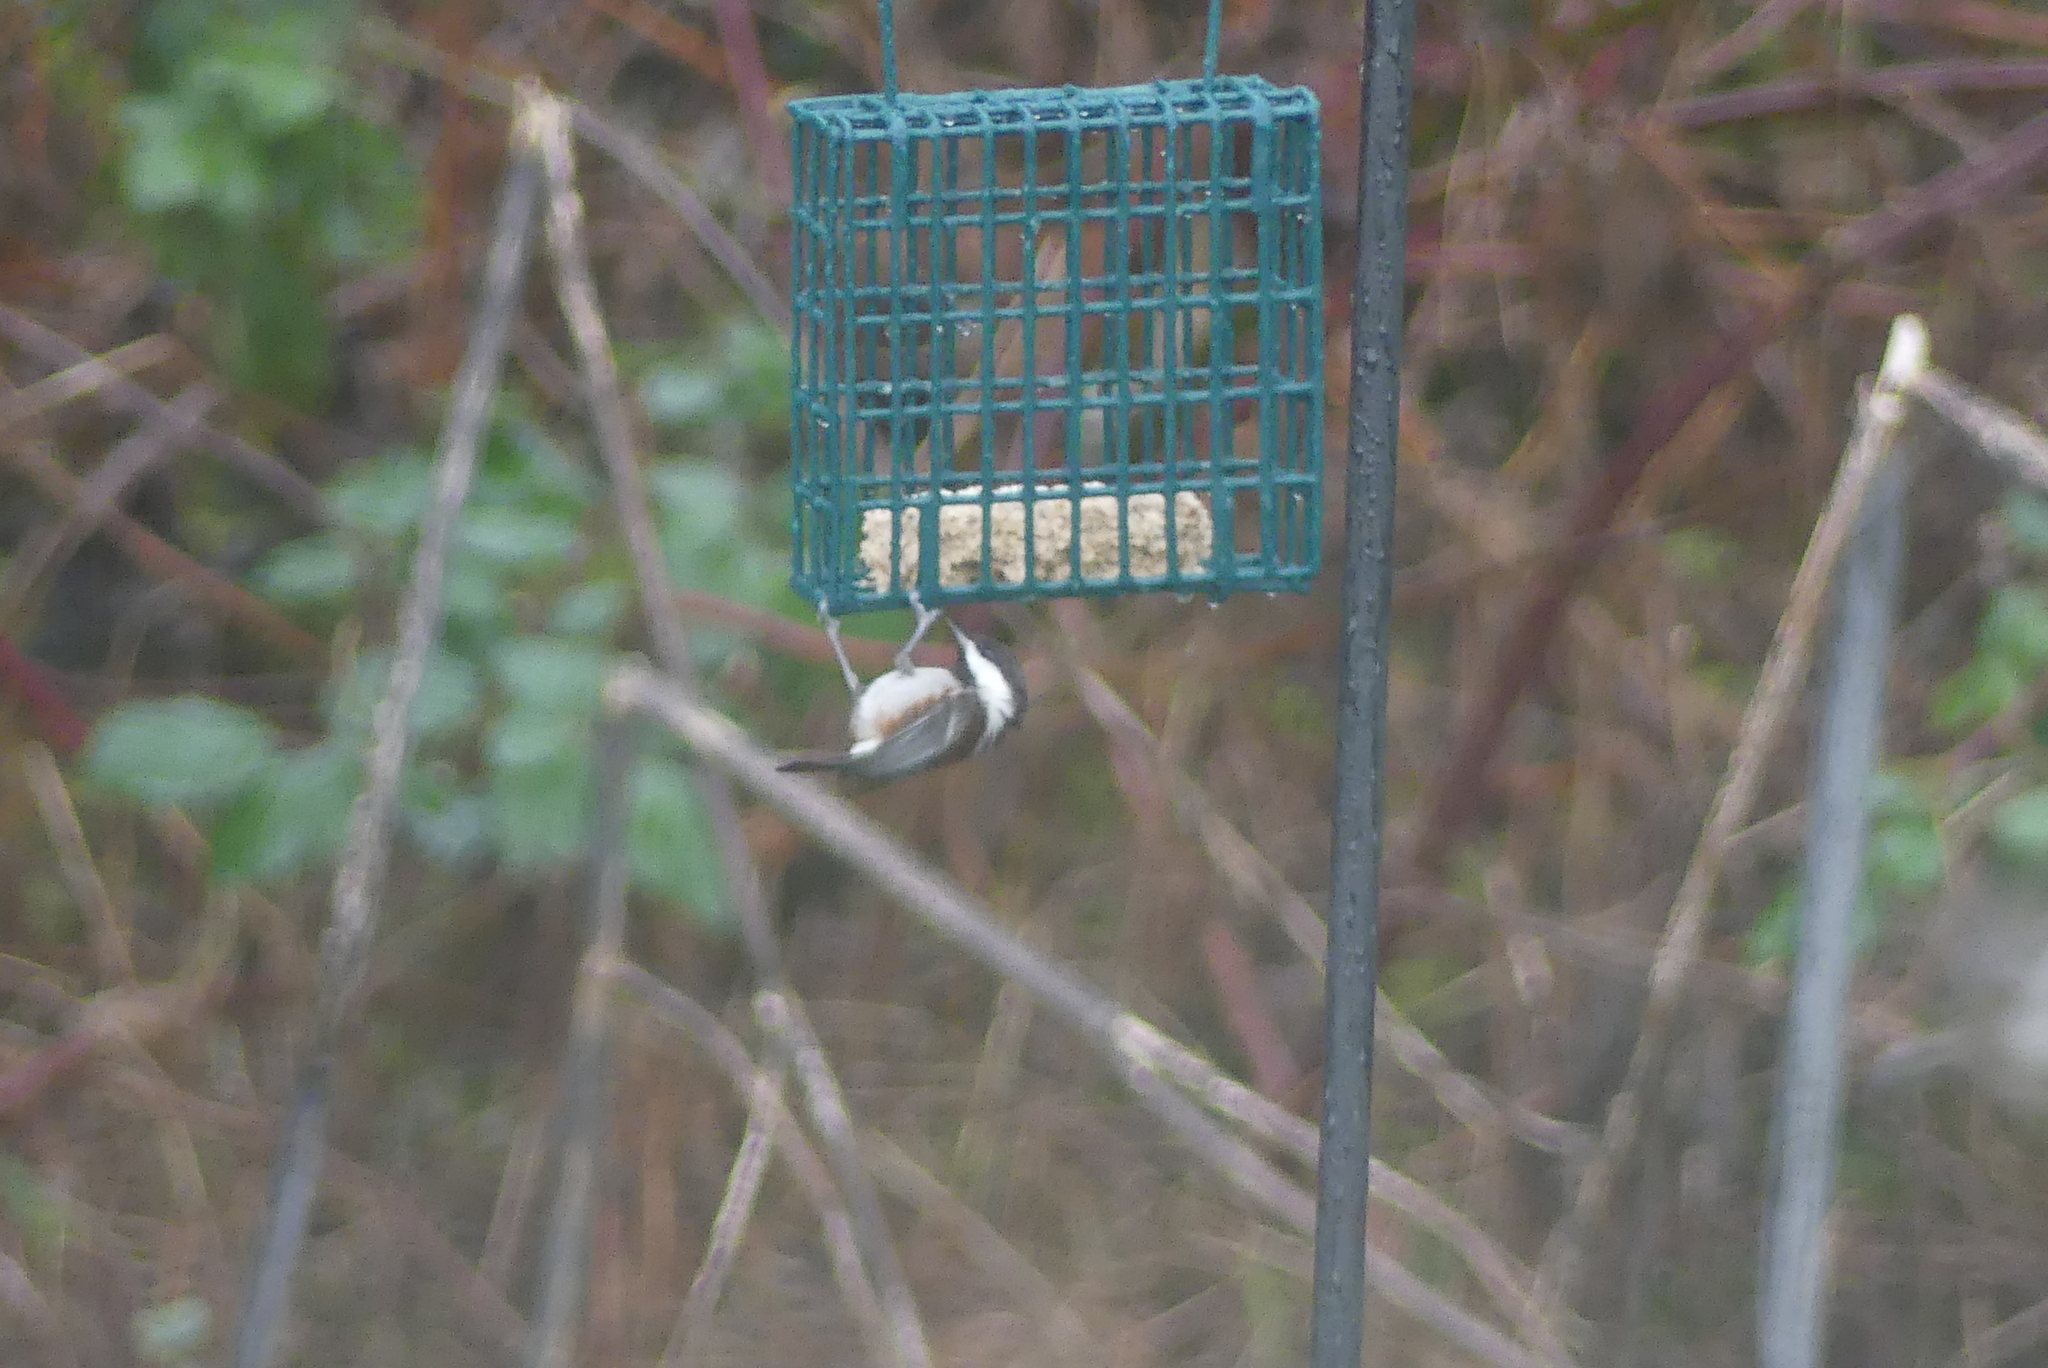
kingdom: Animalia
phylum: Chordata
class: Aves
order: Passeriformes
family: Paridae
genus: Poecile
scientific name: Poecile rufescens
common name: Chestnut-backed chickadee
